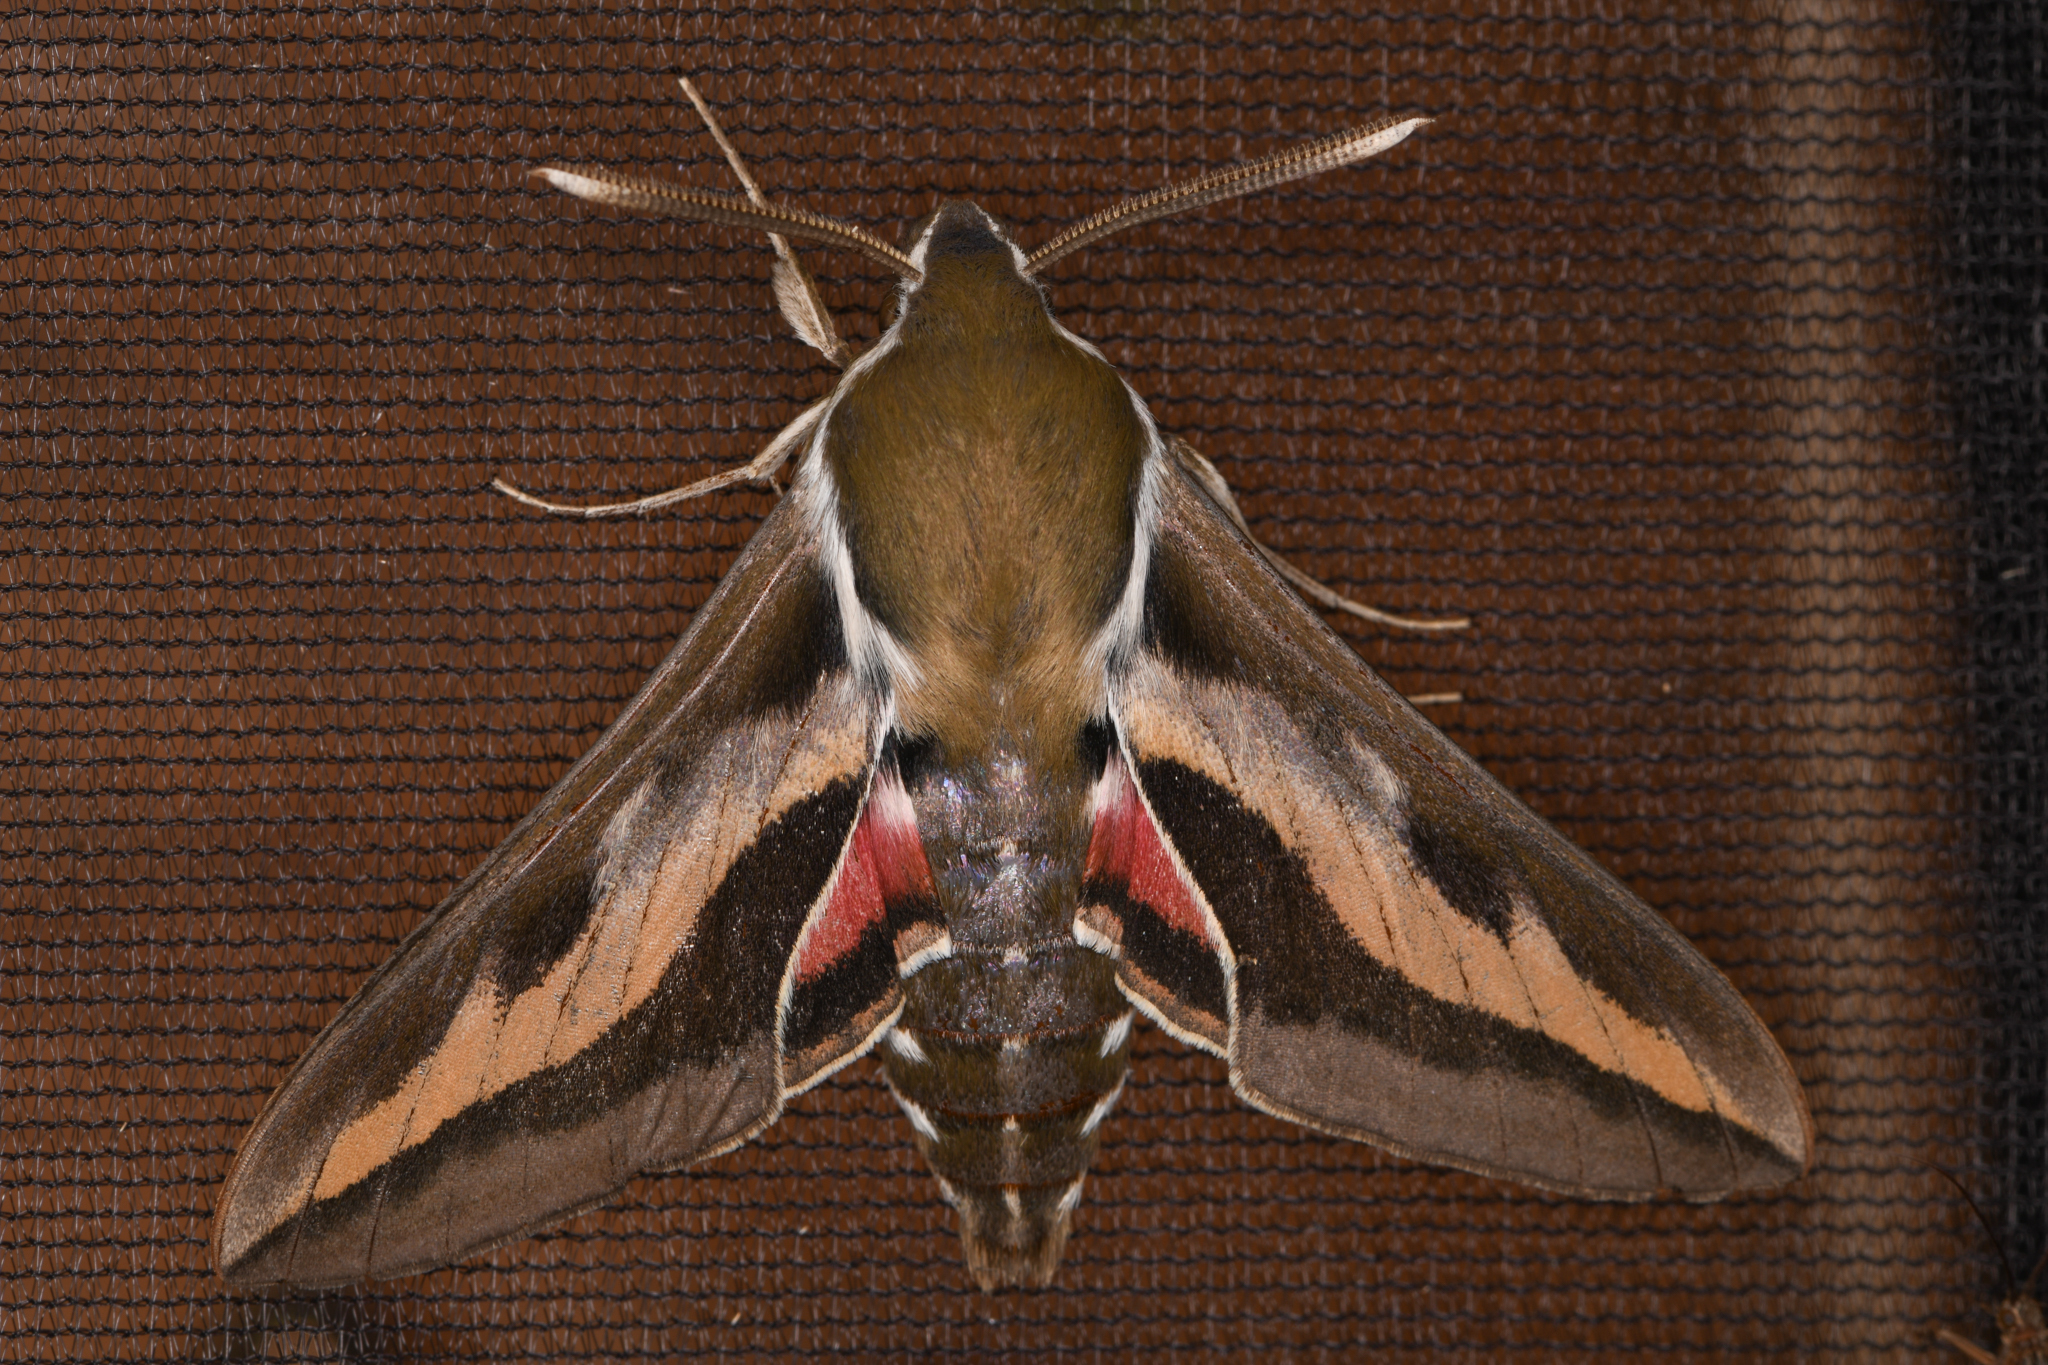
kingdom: Animalia
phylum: Arthropoda
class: Insecta
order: Lepidoptera
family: Sphingidae
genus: Hyles
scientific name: Hyles gallii
